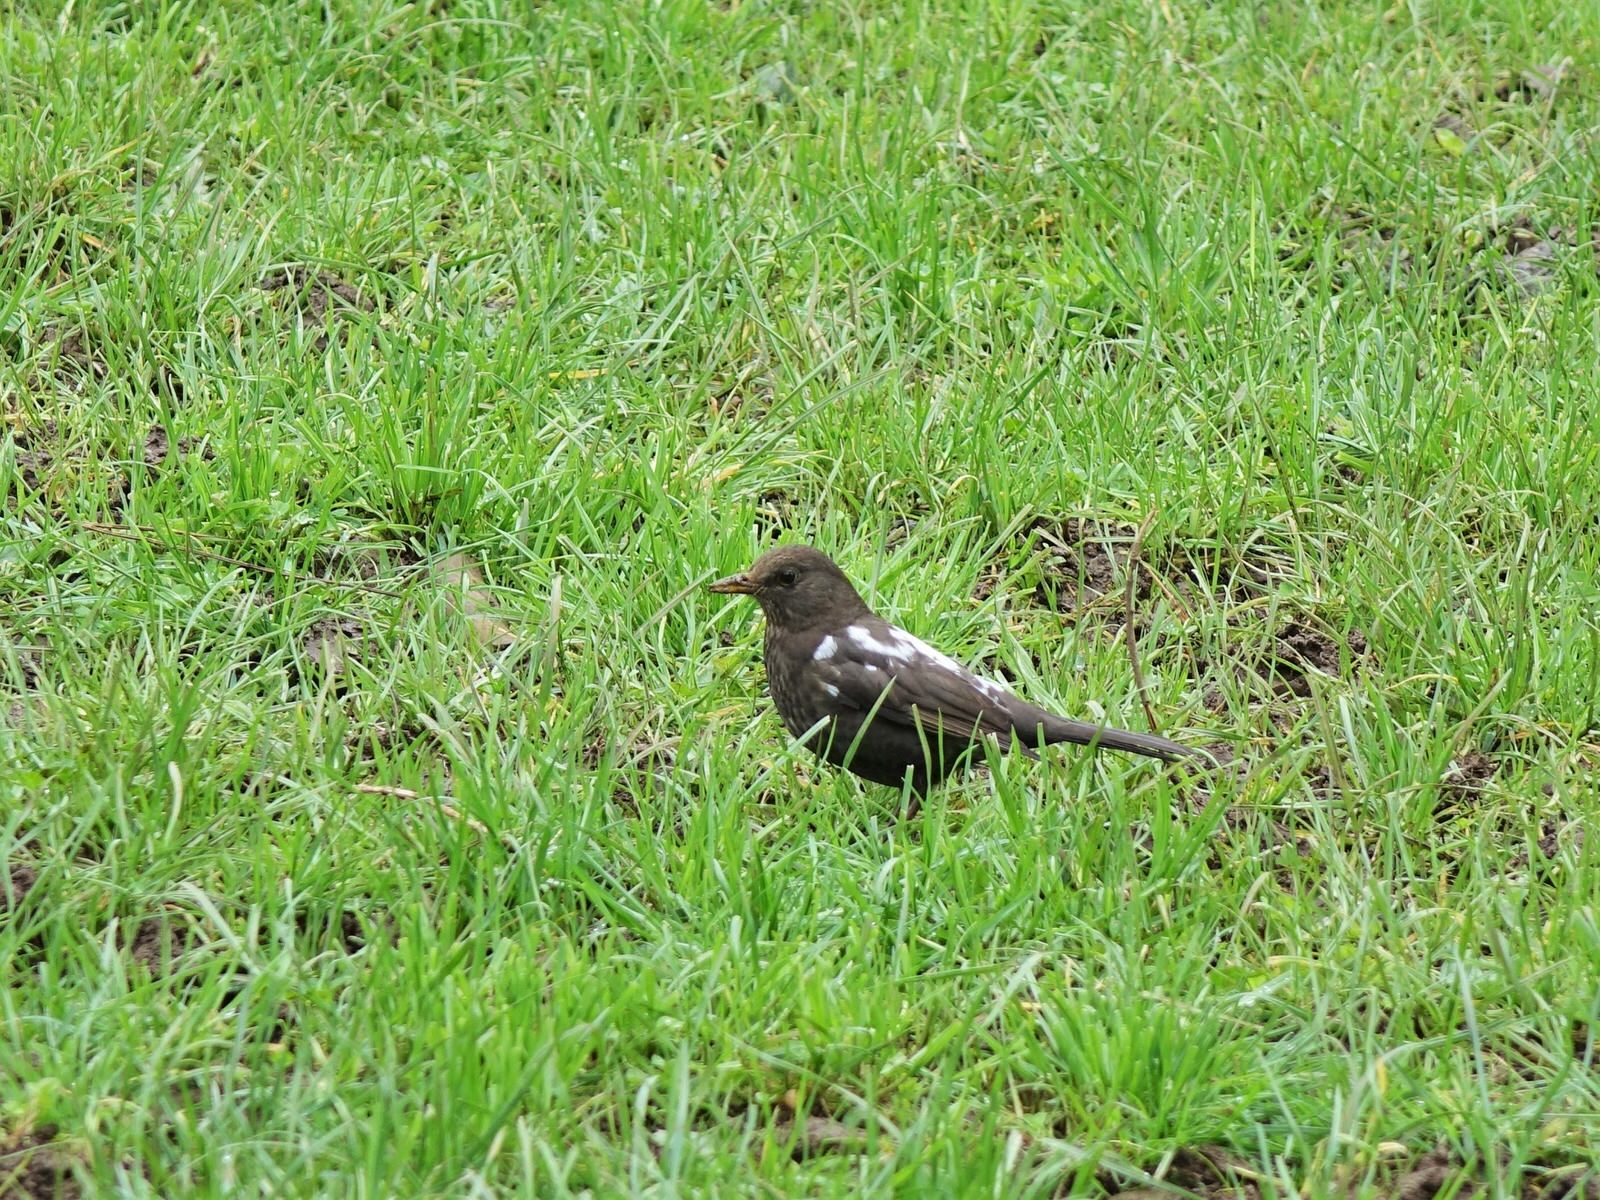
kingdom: Animalia
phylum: Chordata
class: Aves
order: Passeriformes
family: Turdidae
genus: Turdus
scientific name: Turdus merula
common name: Common blackbird
